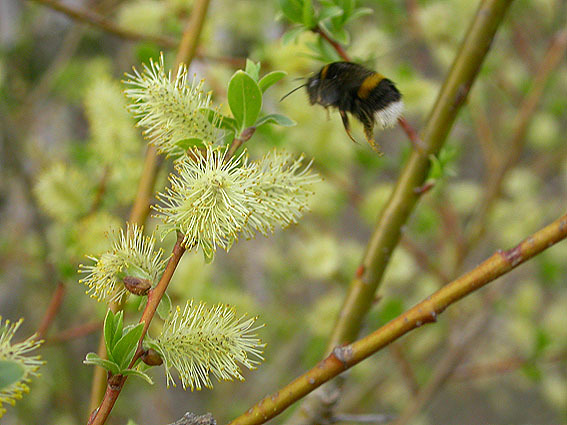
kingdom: Plantae
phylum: Tracheophyta
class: Magnoliopsida
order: Malpighiales
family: Salicaceae
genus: Salix
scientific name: Salix caprea
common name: Goat willow
